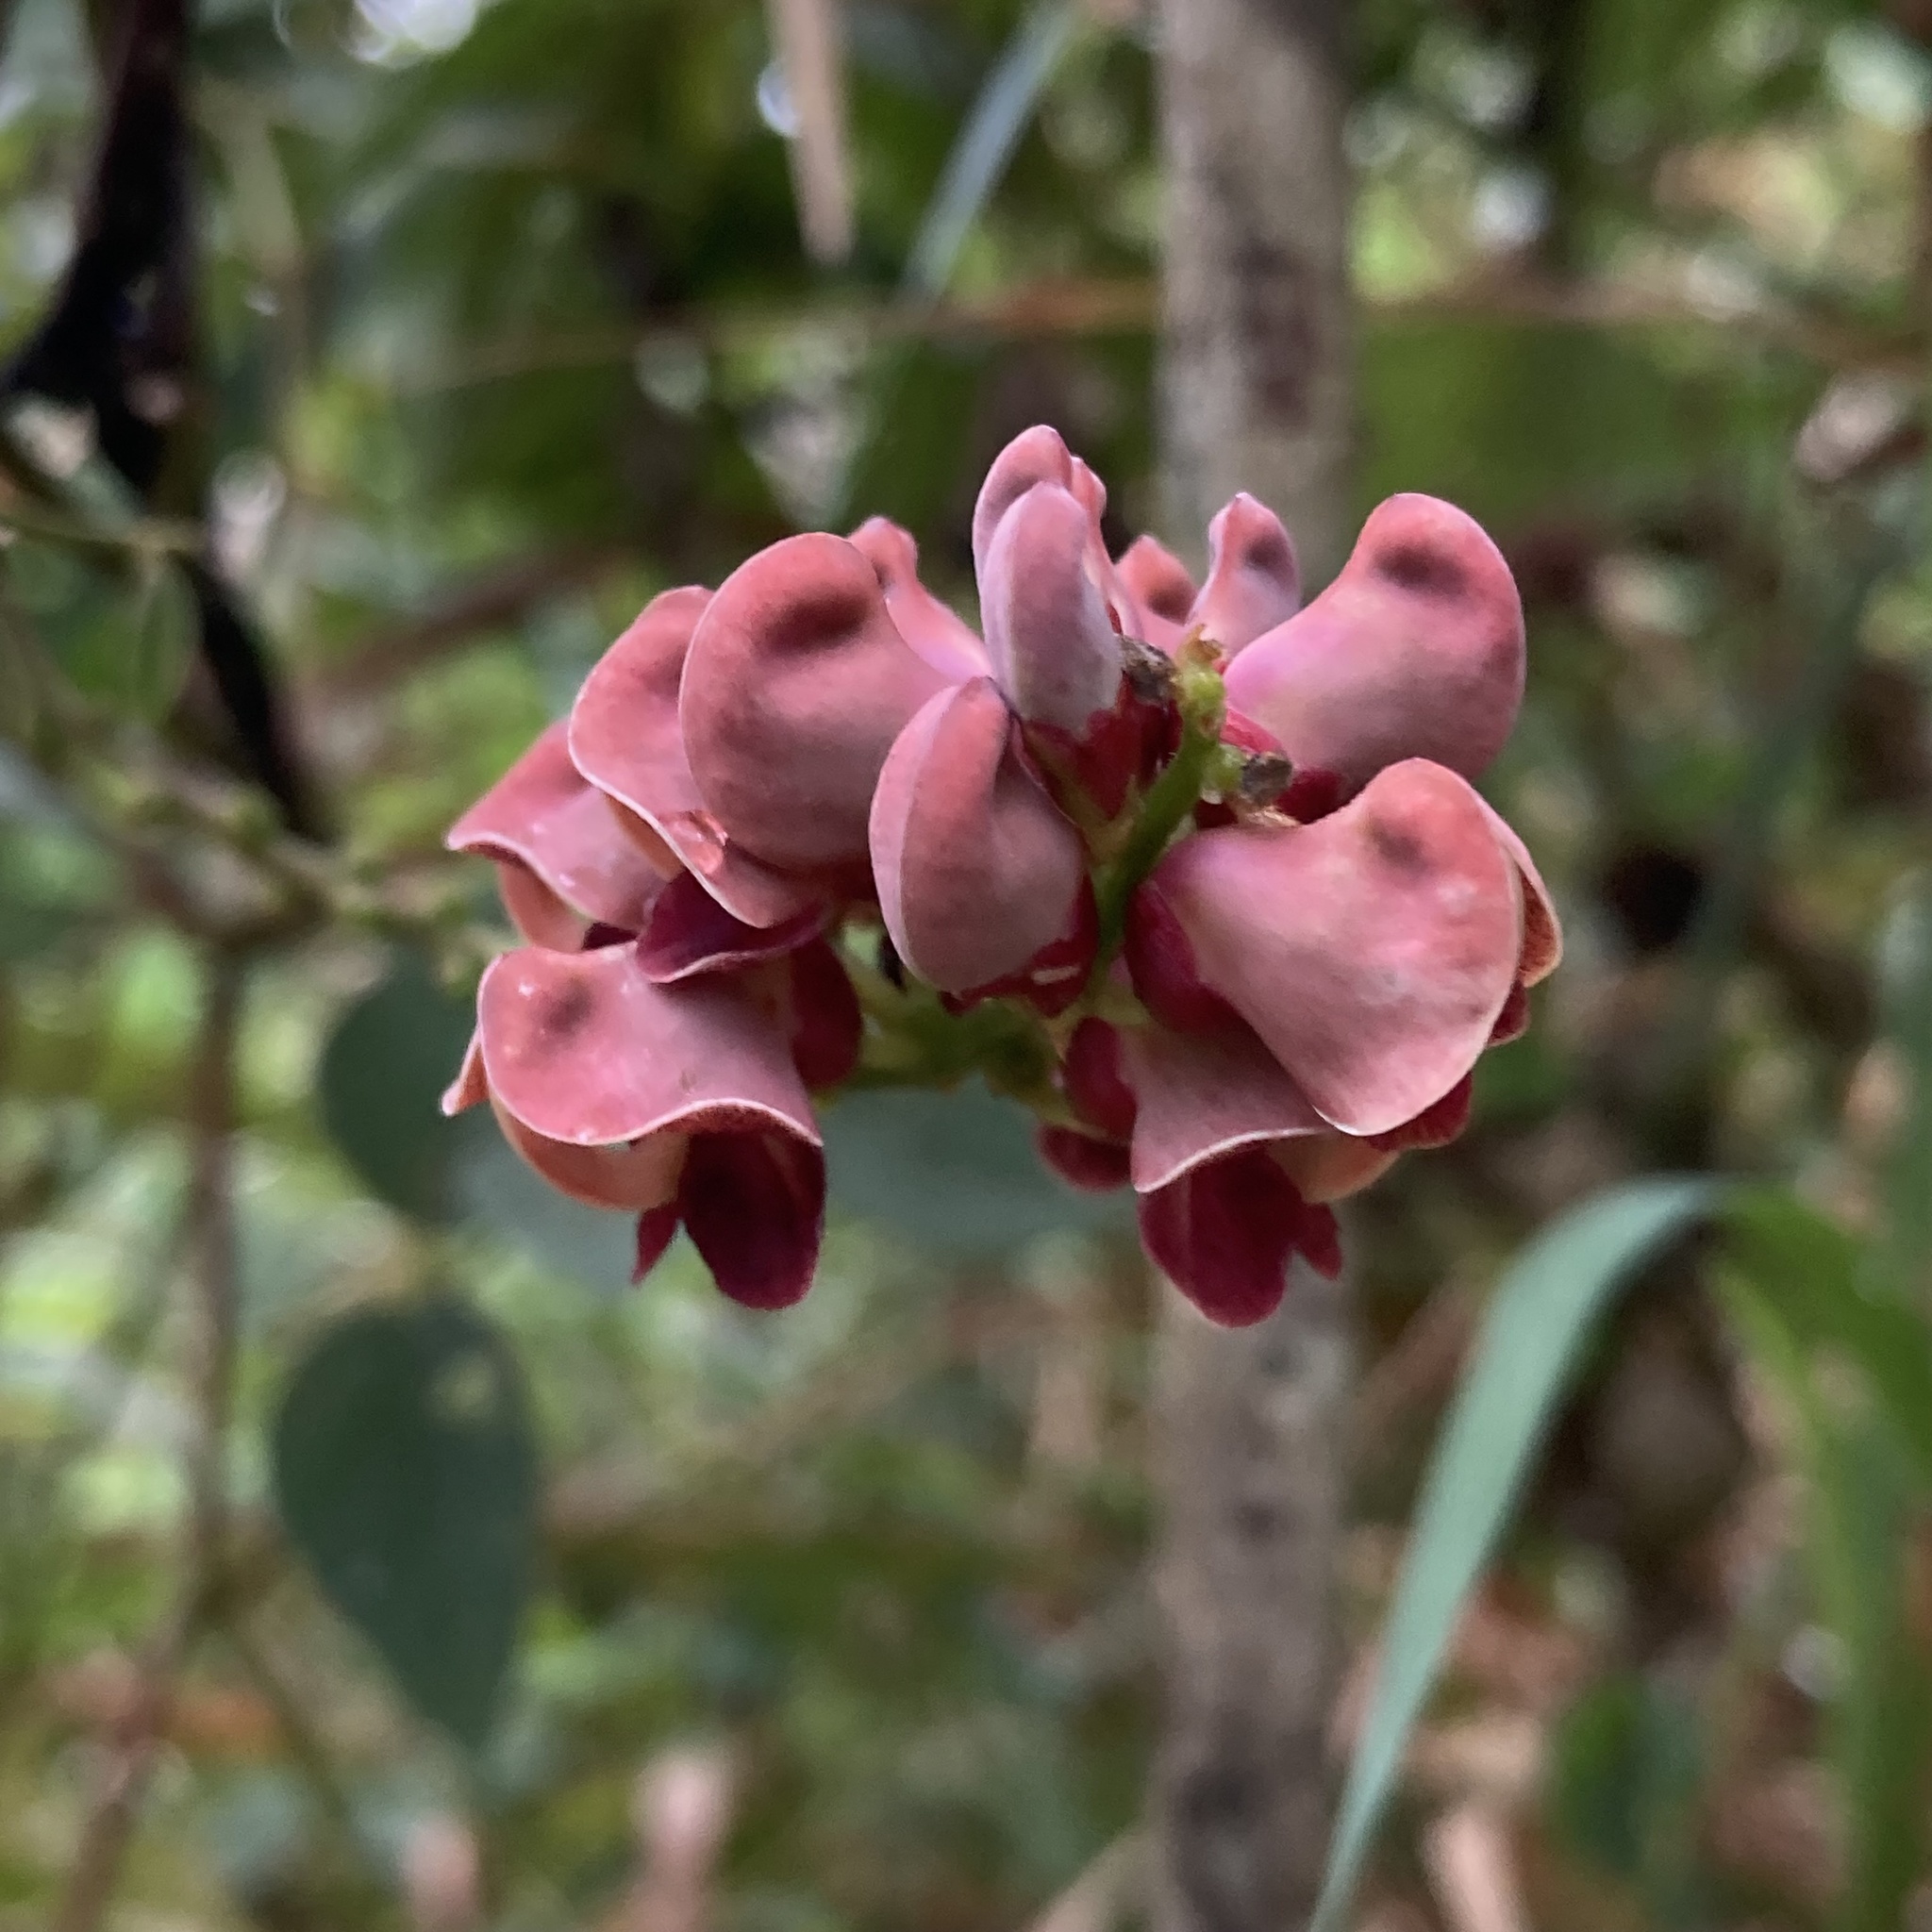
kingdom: Plantae
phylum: Tracheophyta
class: Magnoliopsida
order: Fabales
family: Fabaceae
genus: Apios
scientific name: Apios americana
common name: American potato-bean
